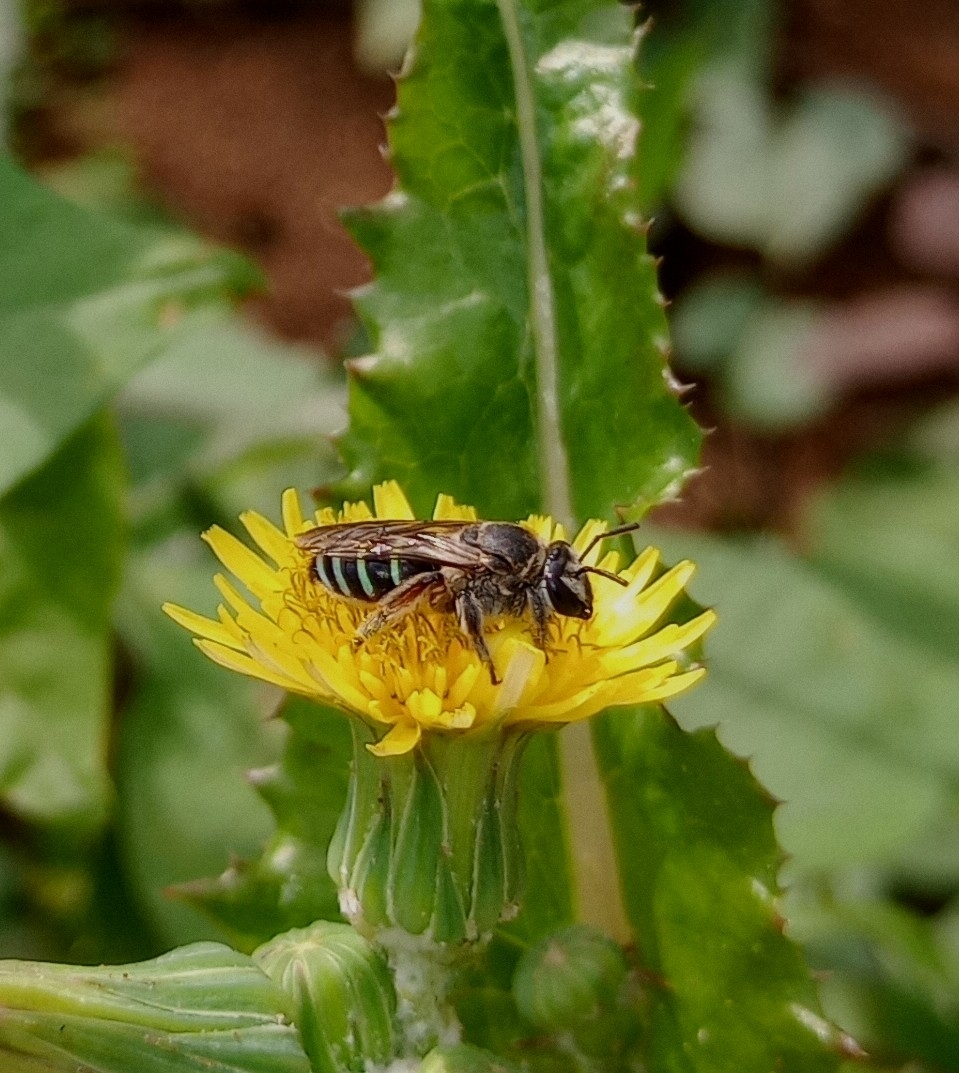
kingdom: Animalia
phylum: Arthropoda
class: Insecta
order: Hymenoptera
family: Halictidae
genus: Nomia
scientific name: Nomia westwoodi
